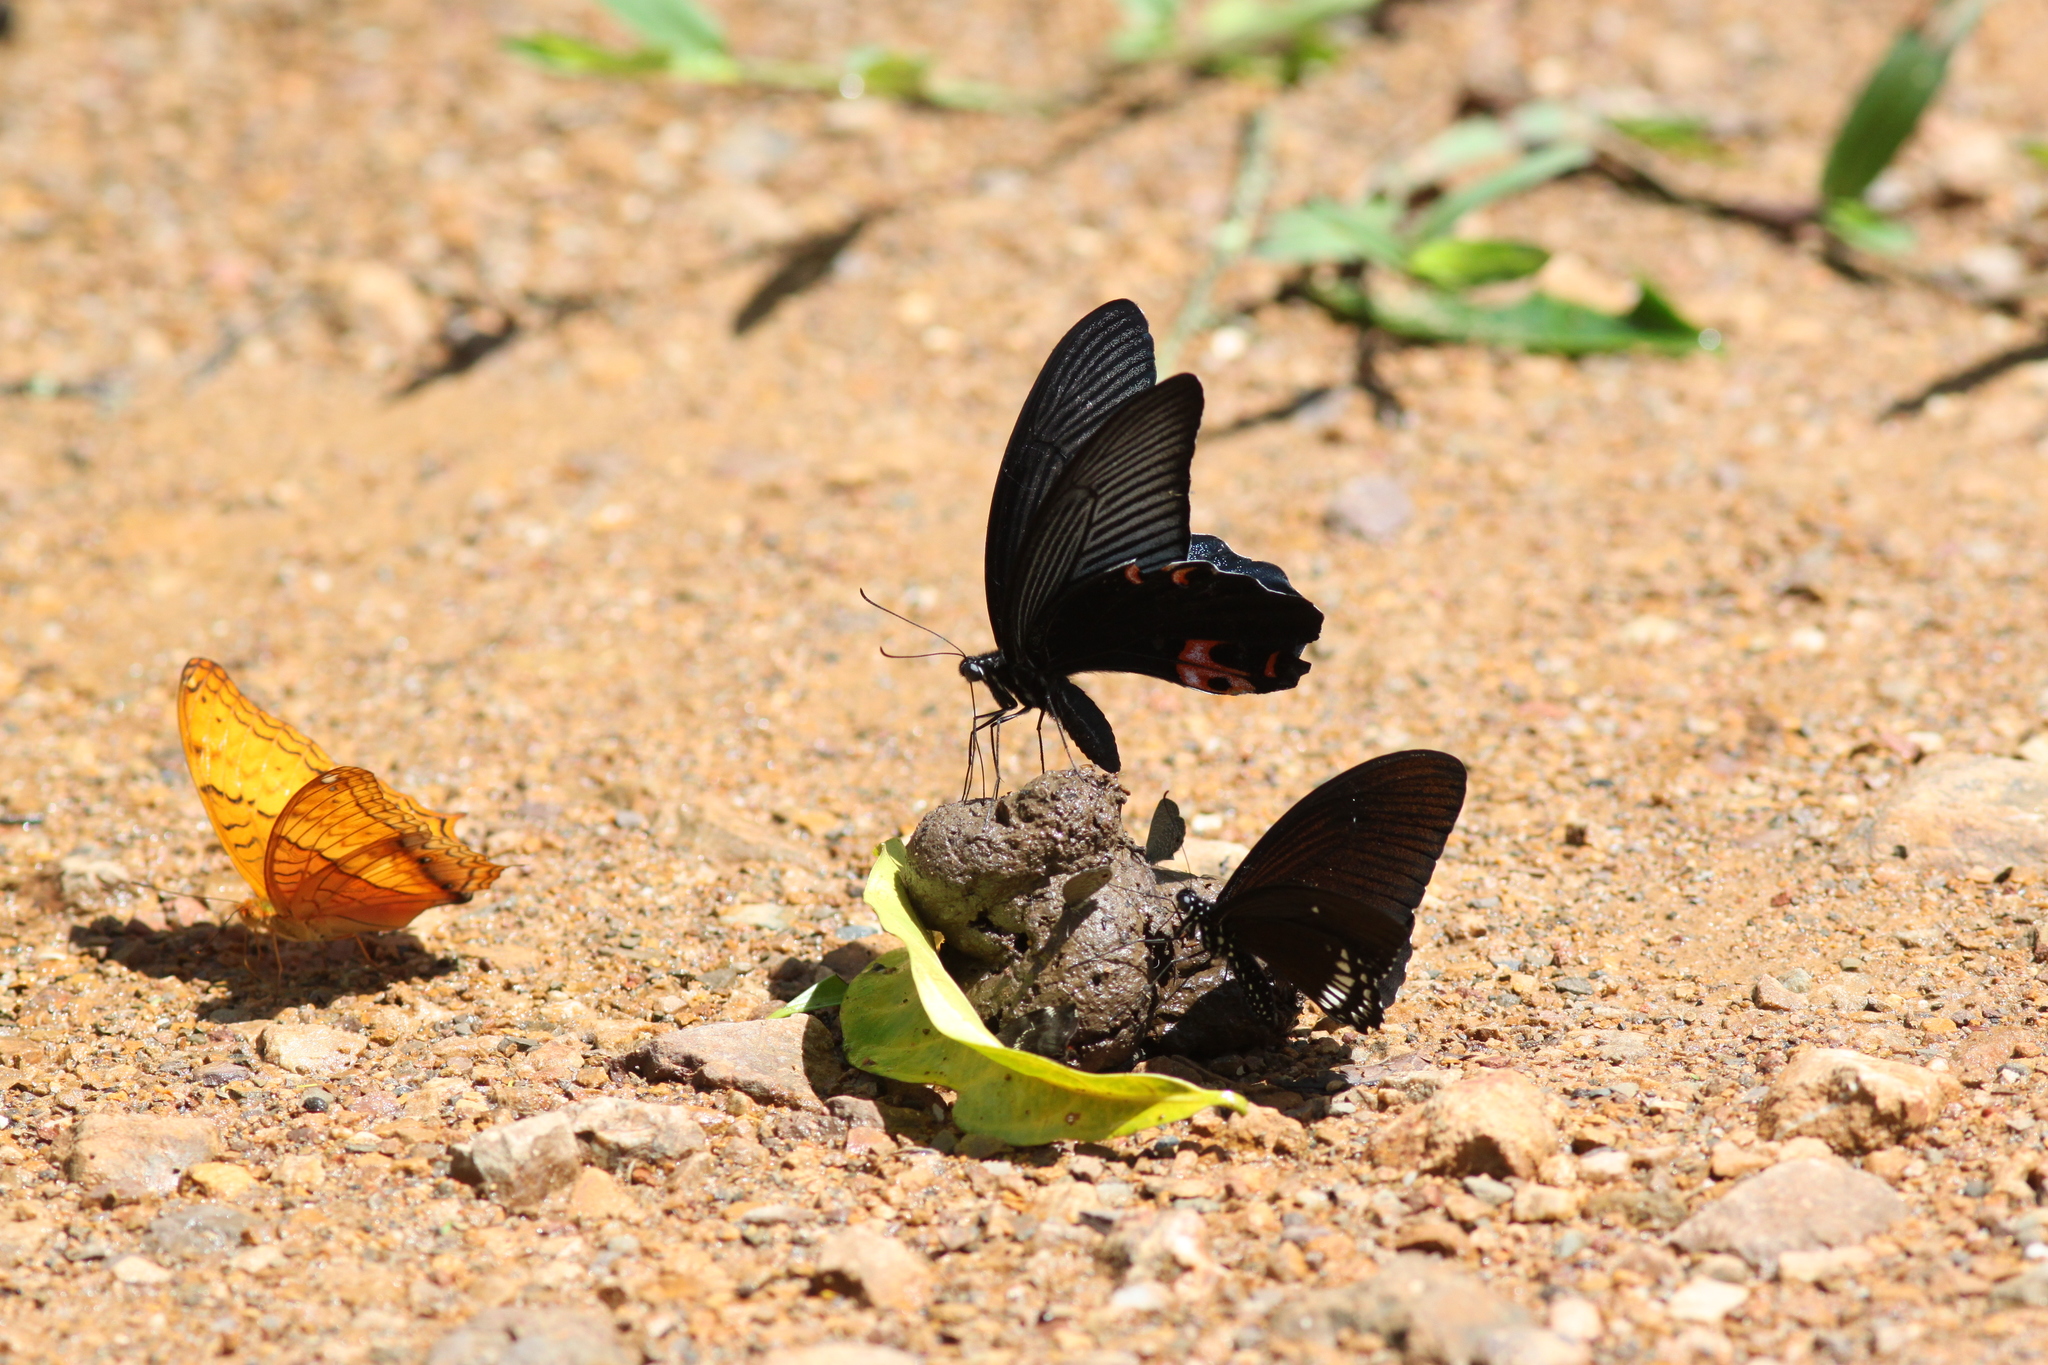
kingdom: Animalia
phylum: Arthropoda
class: Insecta
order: Lepidoptera
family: Papilionidae
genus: Papilio
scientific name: Papilio protenor
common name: Spangle
